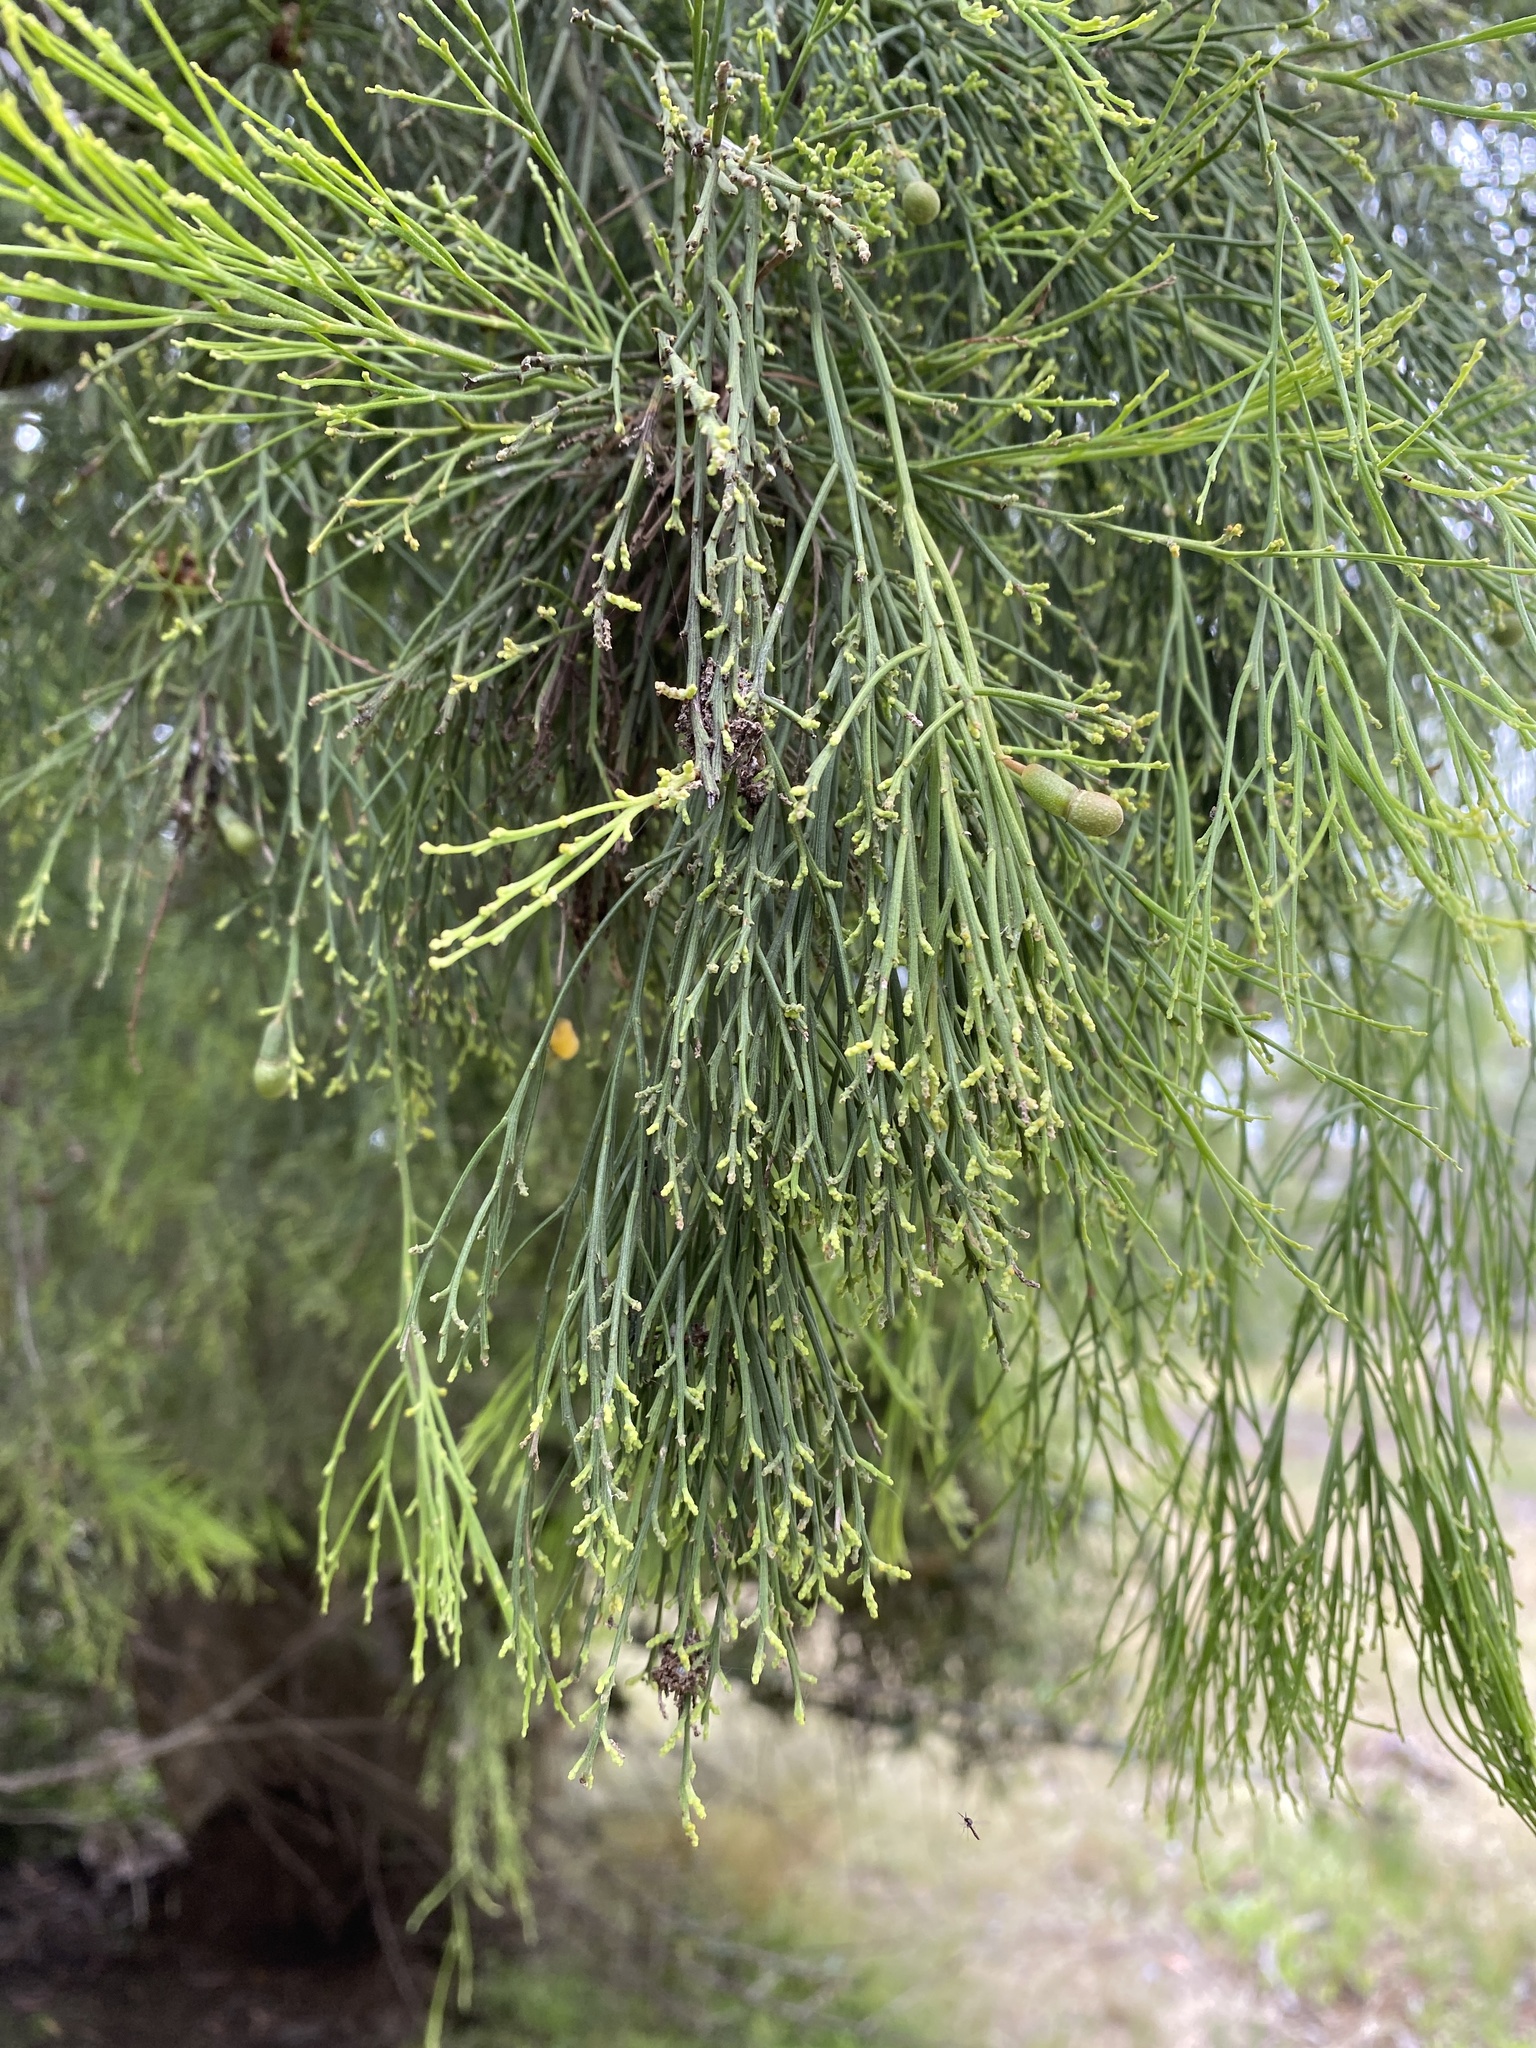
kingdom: Plantae
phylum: Tracheophyta
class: Magnoliopsida
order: Santalales
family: Santalaceae
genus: Exocarpos
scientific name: Exocarpos cupressiformis
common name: Cherry ballart
